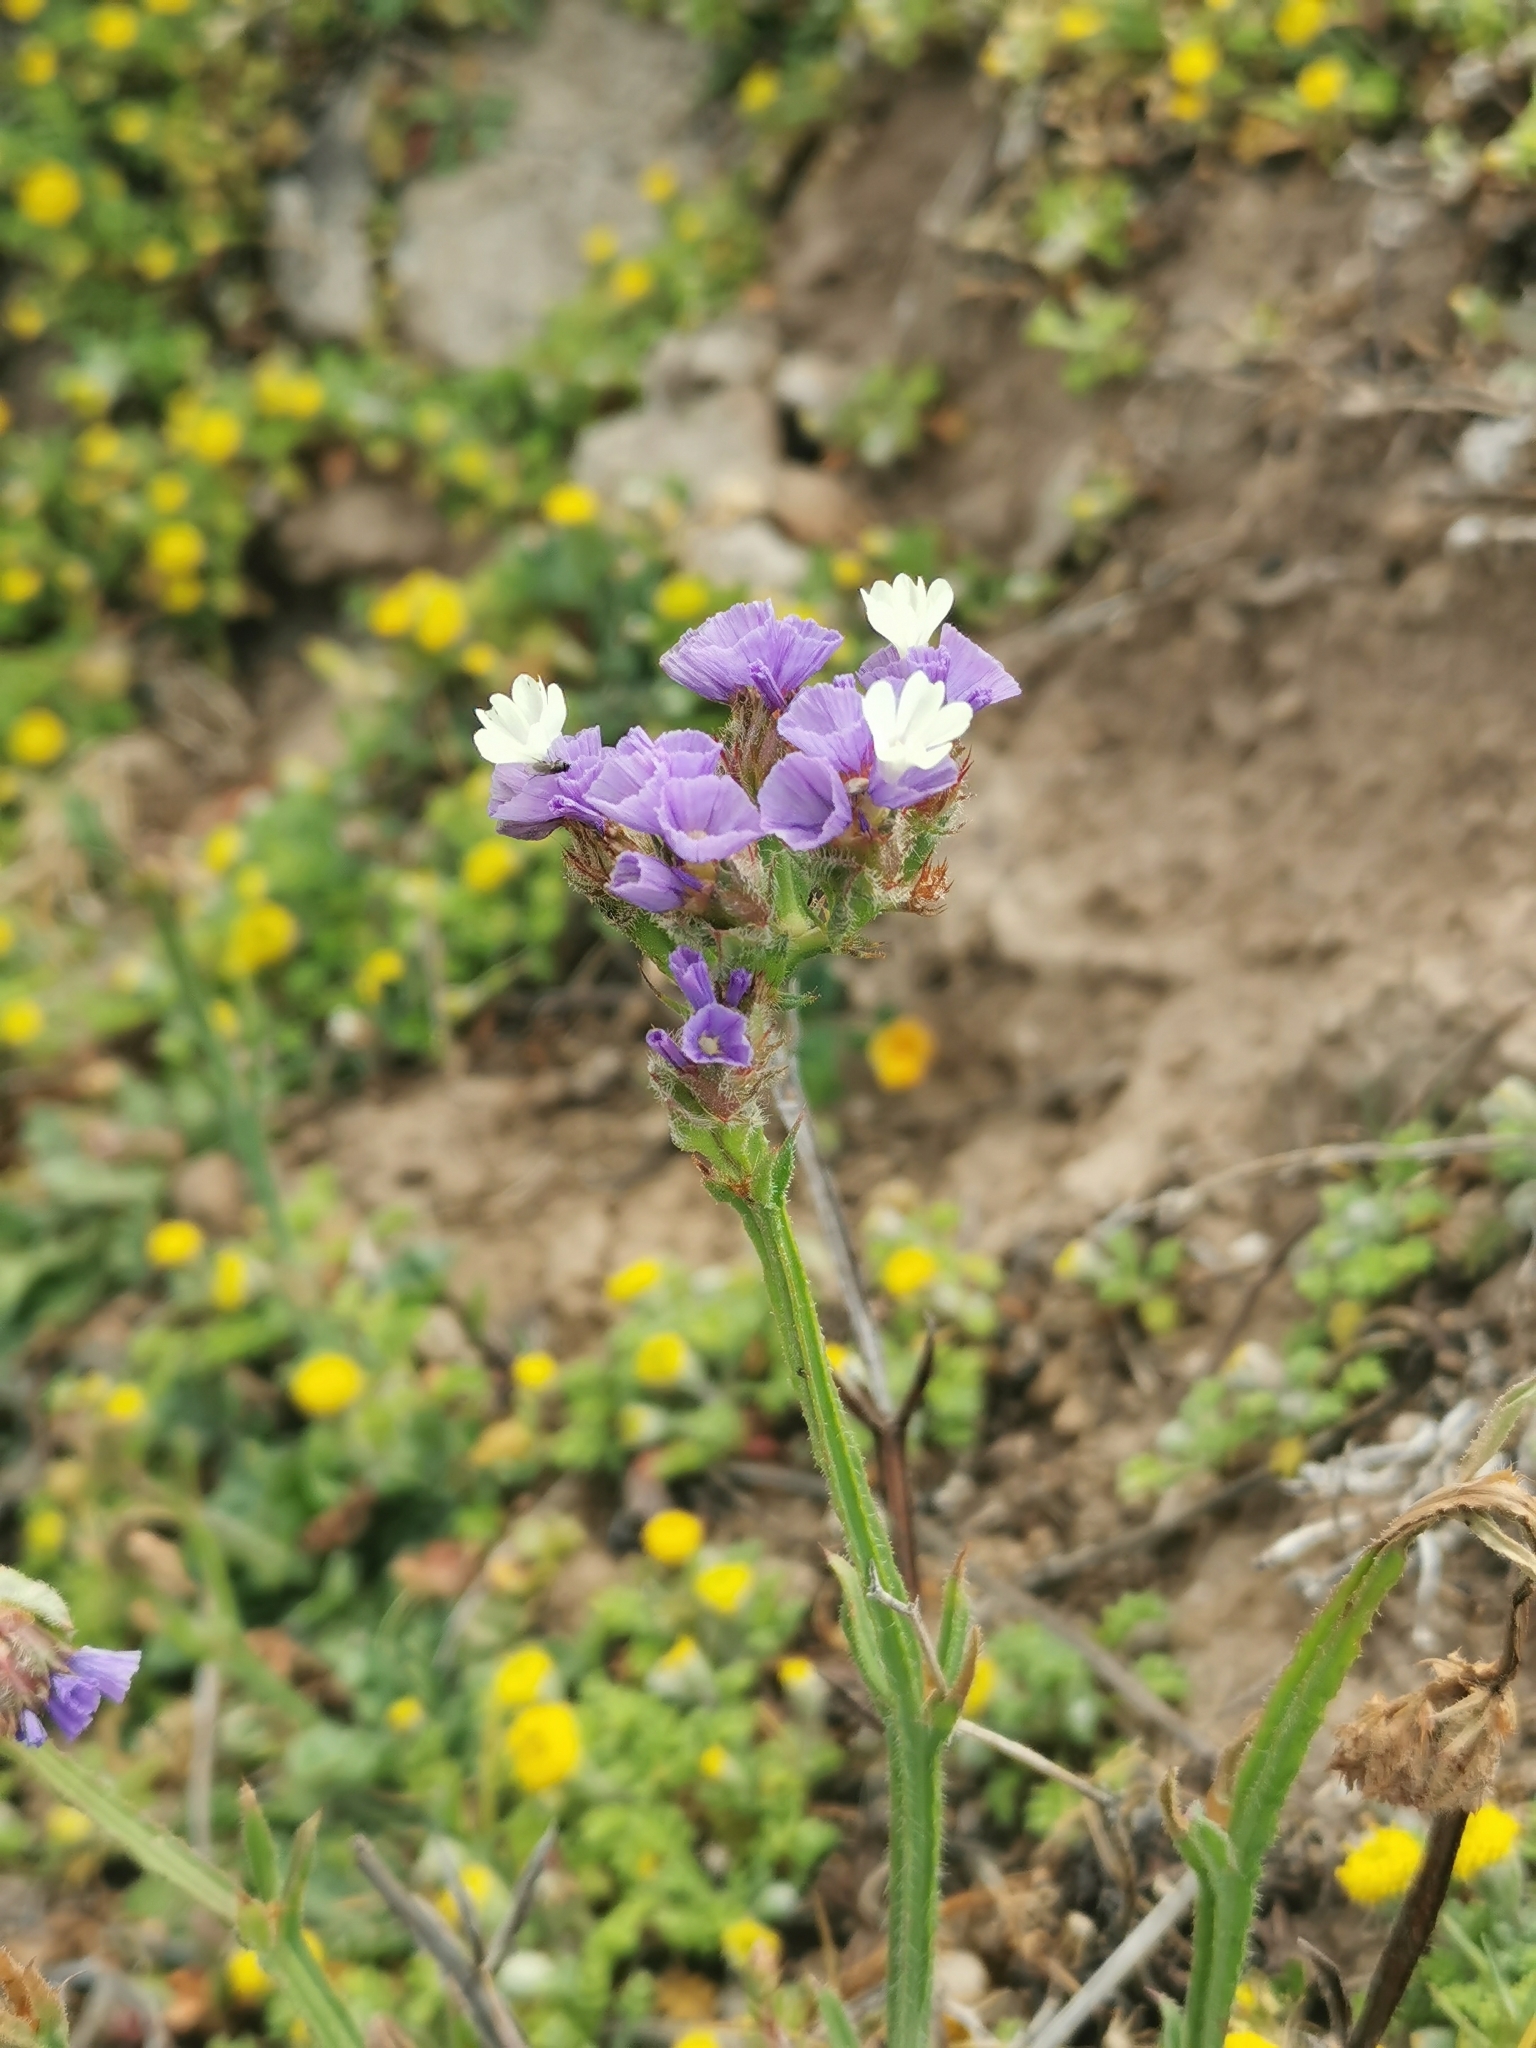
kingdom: Plantae
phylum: Tracheophyta
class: Magnoliopsida
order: Caryophyllales
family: Plumbaginaceae
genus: Limonium
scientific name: Limonium sinuatum
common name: Statice
